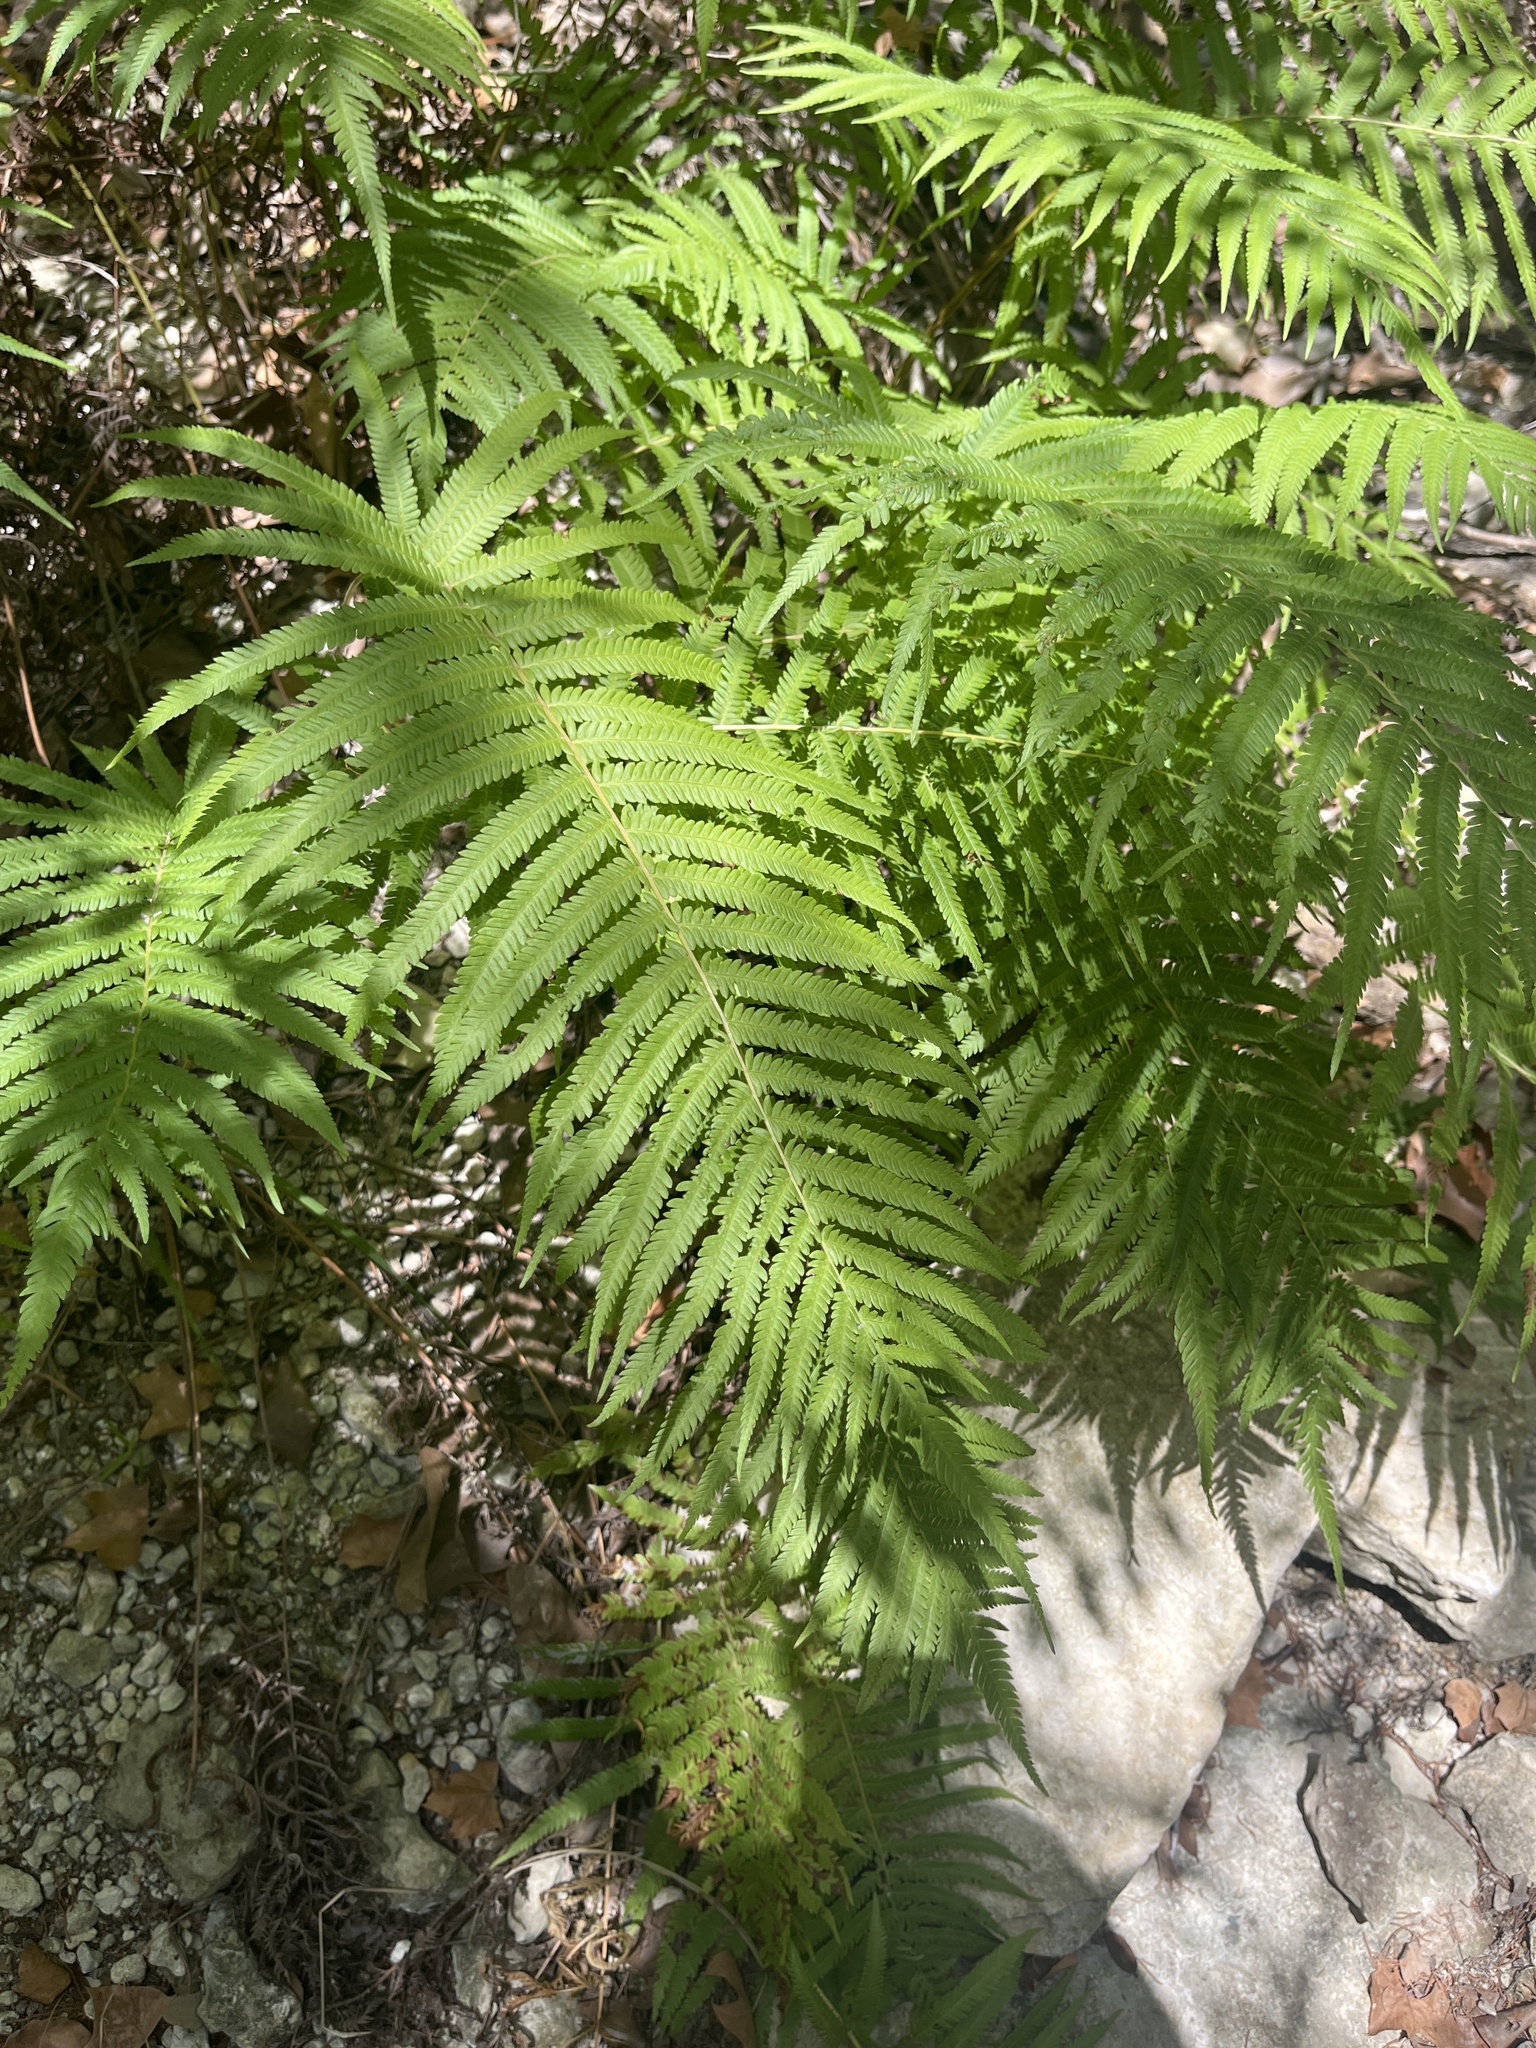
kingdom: Plantae
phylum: Tracheophyta
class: Polypodiopsida
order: Polypodiales
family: Thelypteridaceae
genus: Pelazoneuron
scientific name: Pelazoneuron ovatum
